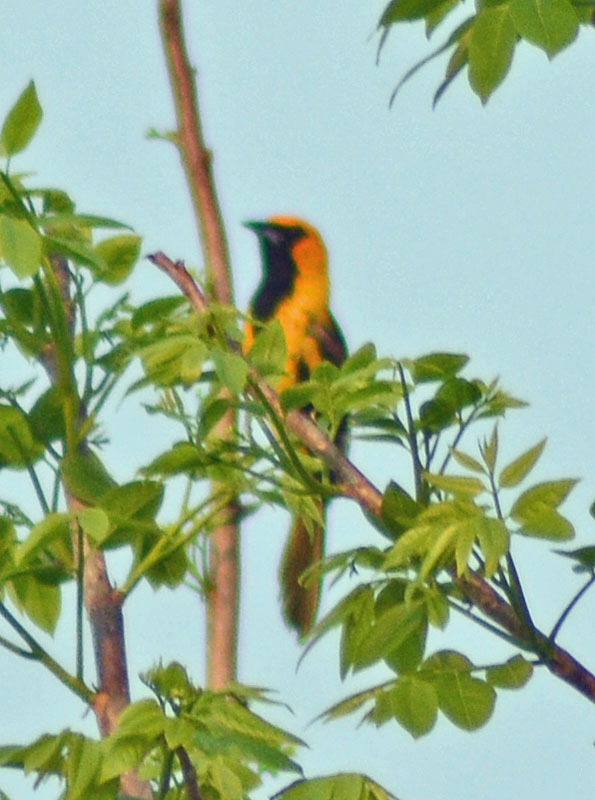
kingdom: Animalia
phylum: Chordata
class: Aves
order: Passeriformes
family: Icteridae
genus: Icterus
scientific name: Icterus pectoralis
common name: Spot-breasted oriole
